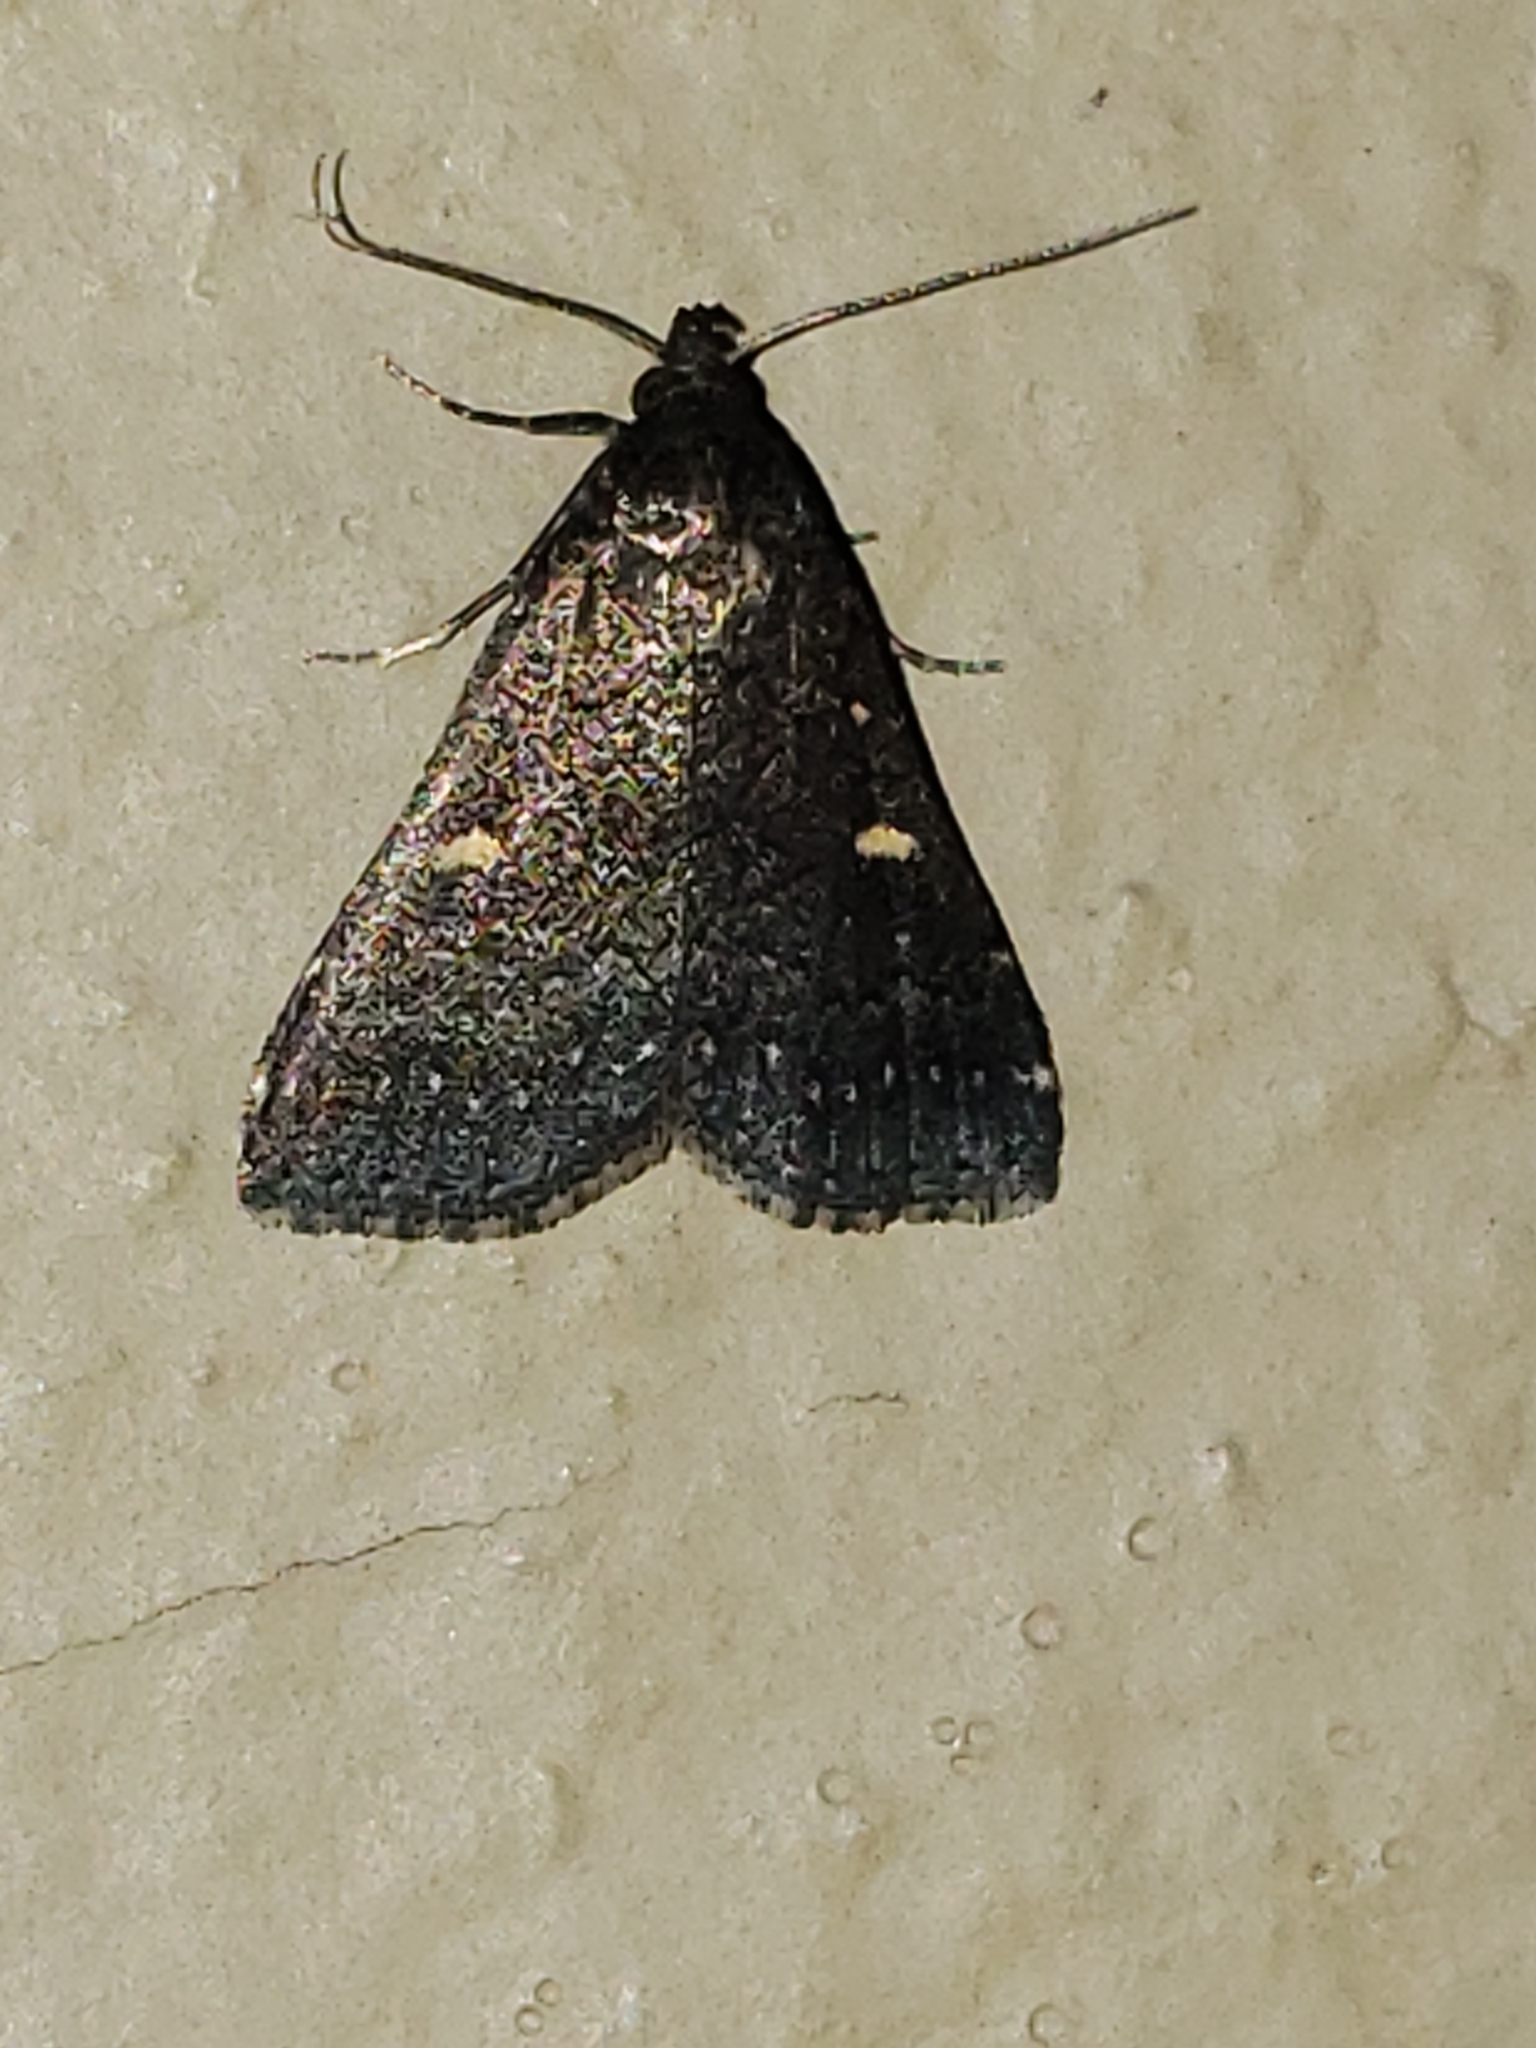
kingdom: Animalia
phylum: Arthropoda
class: Insecta
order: Lepidoptera
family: Erebidae
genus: Tetanolita
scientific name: Tetanolita mynesalis
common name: Smoky tetanolita moth
